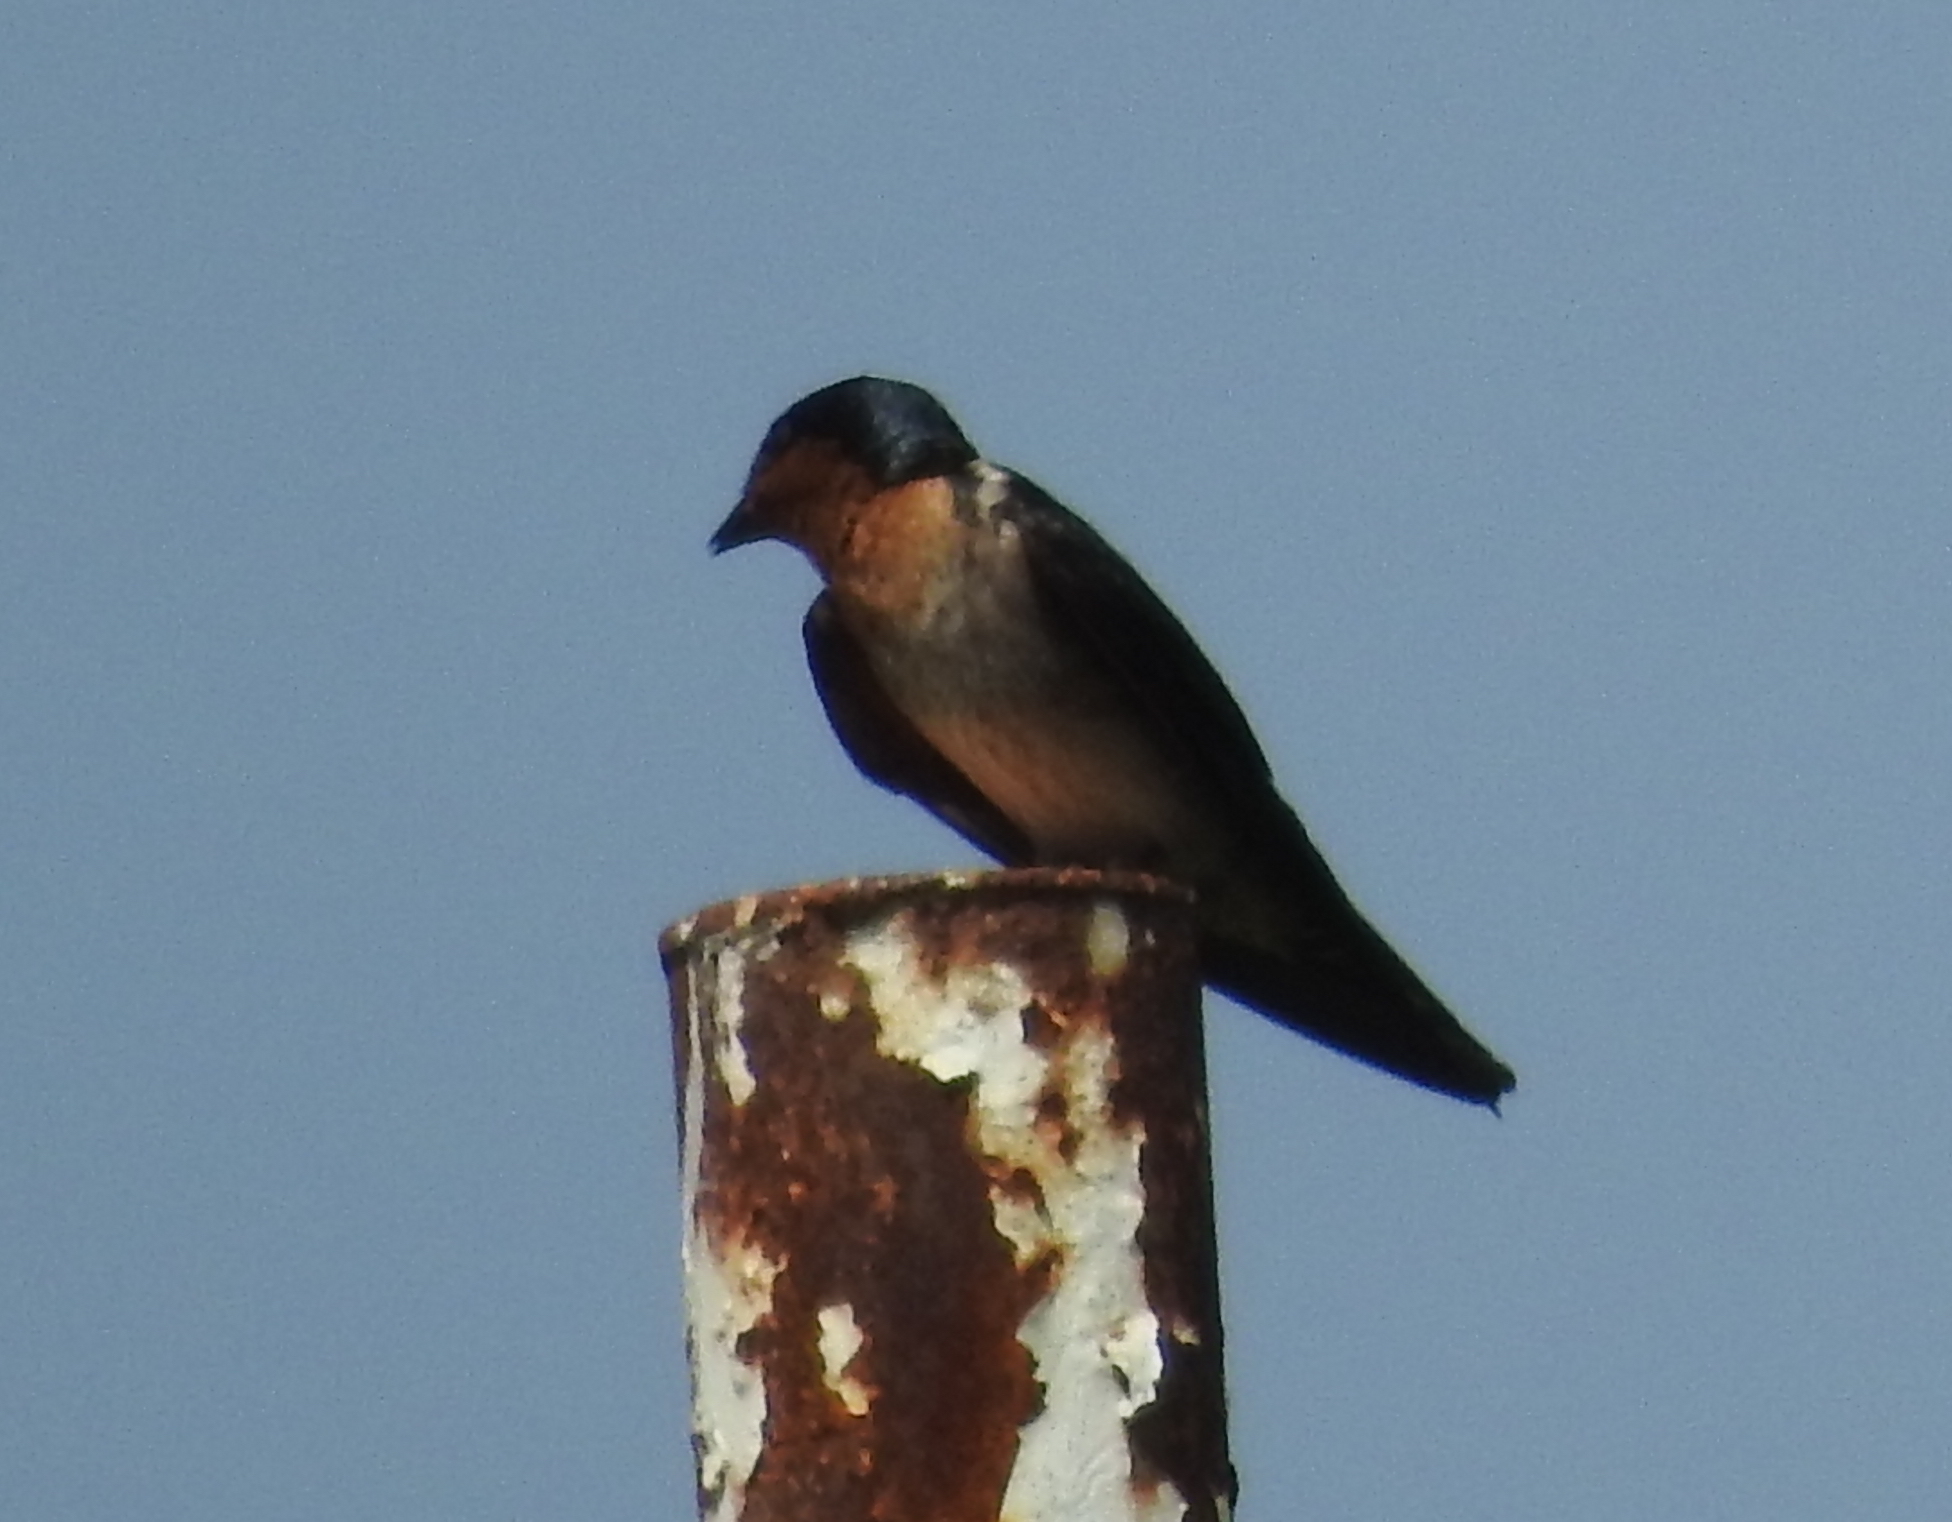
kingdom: Animalia
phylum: Chordata
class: Aves
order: Passeriformes
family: Hirundinidae
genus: Hirundo
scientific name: Hirundo tahitica
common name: Pacific swallow
